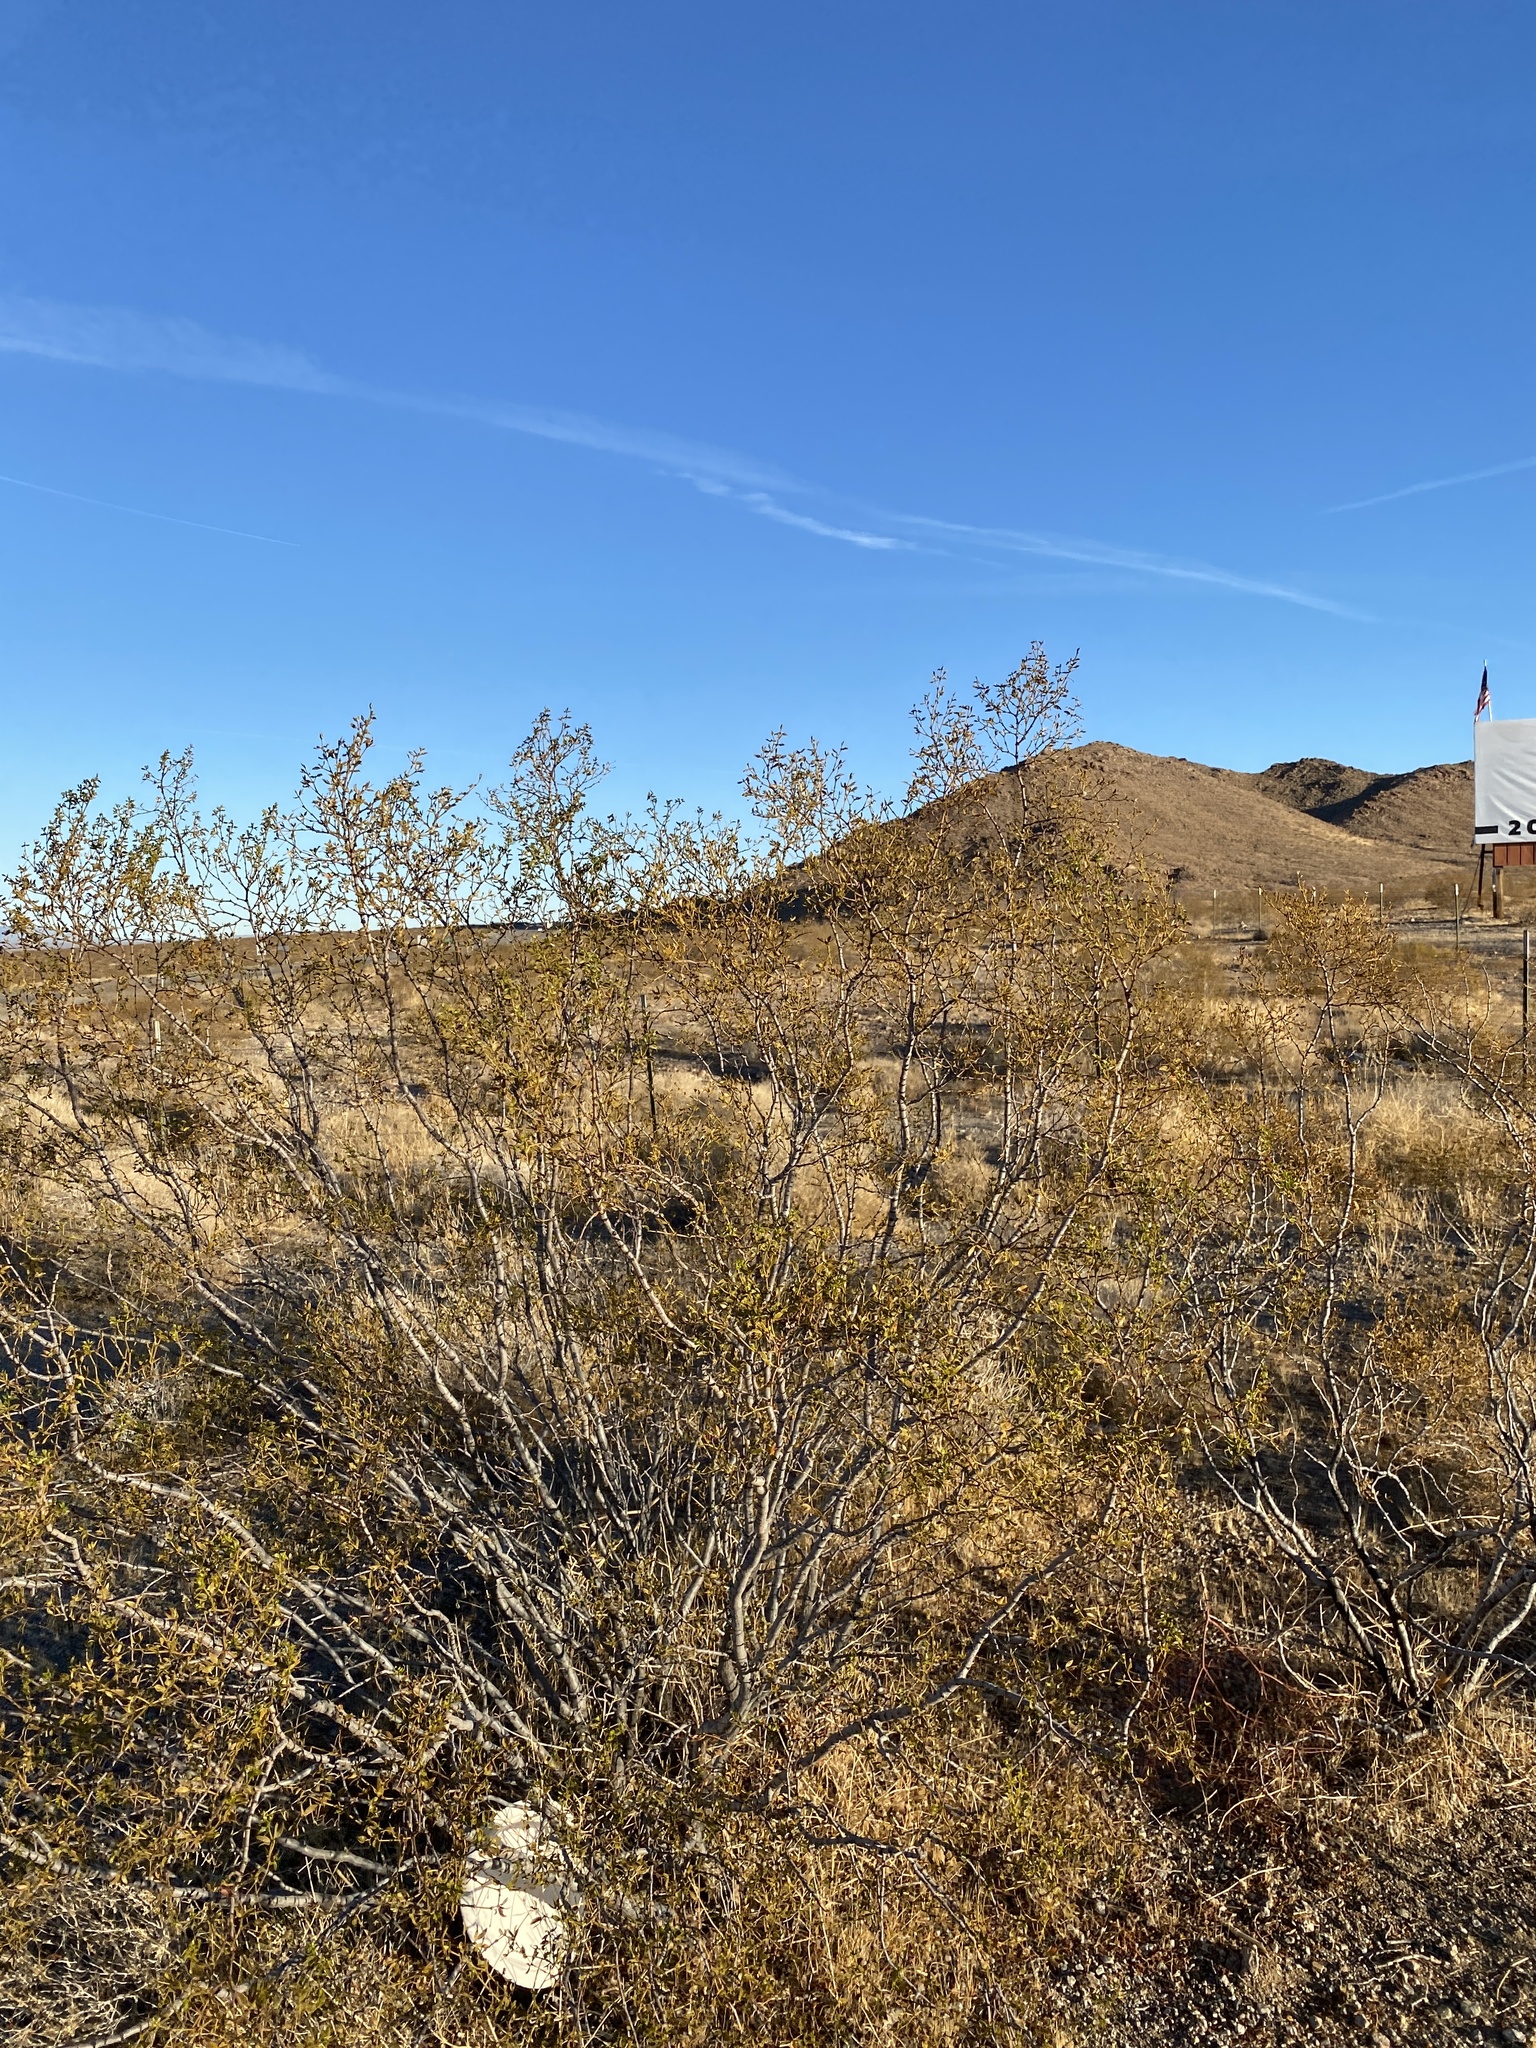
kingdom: Plantae
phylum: Tracheophyta
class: Magnoliopsida
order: Zygophyllales
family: Zygophyllaceae
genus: Larrea
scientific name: Larrea tridentata
